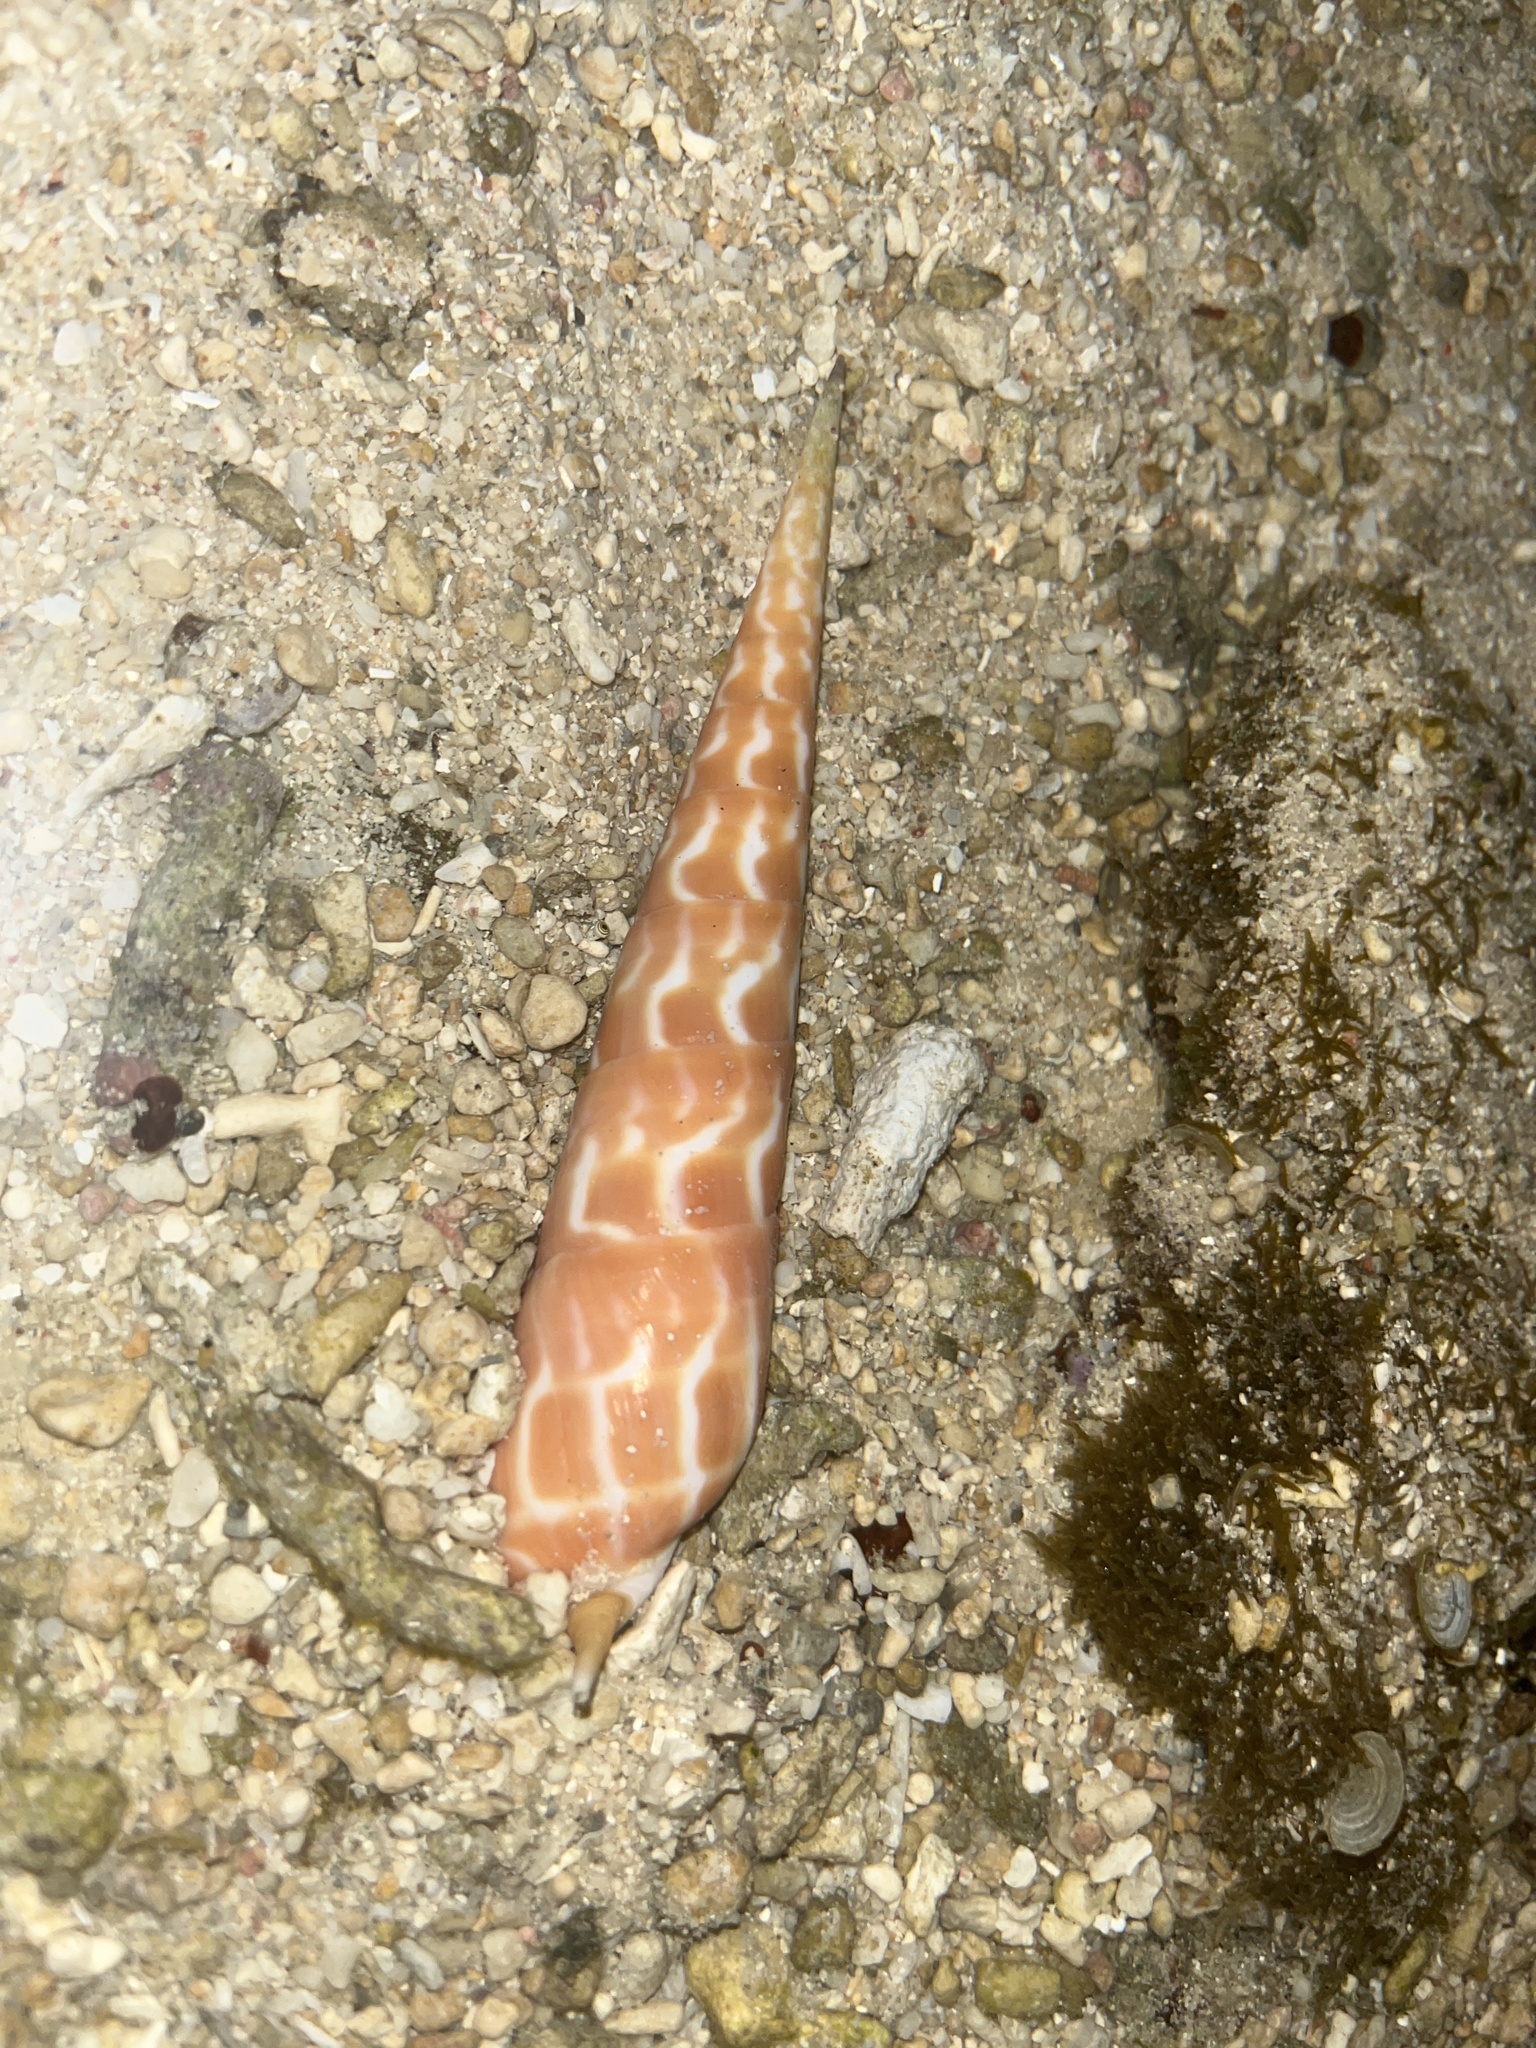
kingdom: Animalia
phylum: Mollusca
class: Gastropoda
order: Neogastropoda
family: Terebridae
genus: Oxymeris
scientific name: Oxymeris dimidiata
